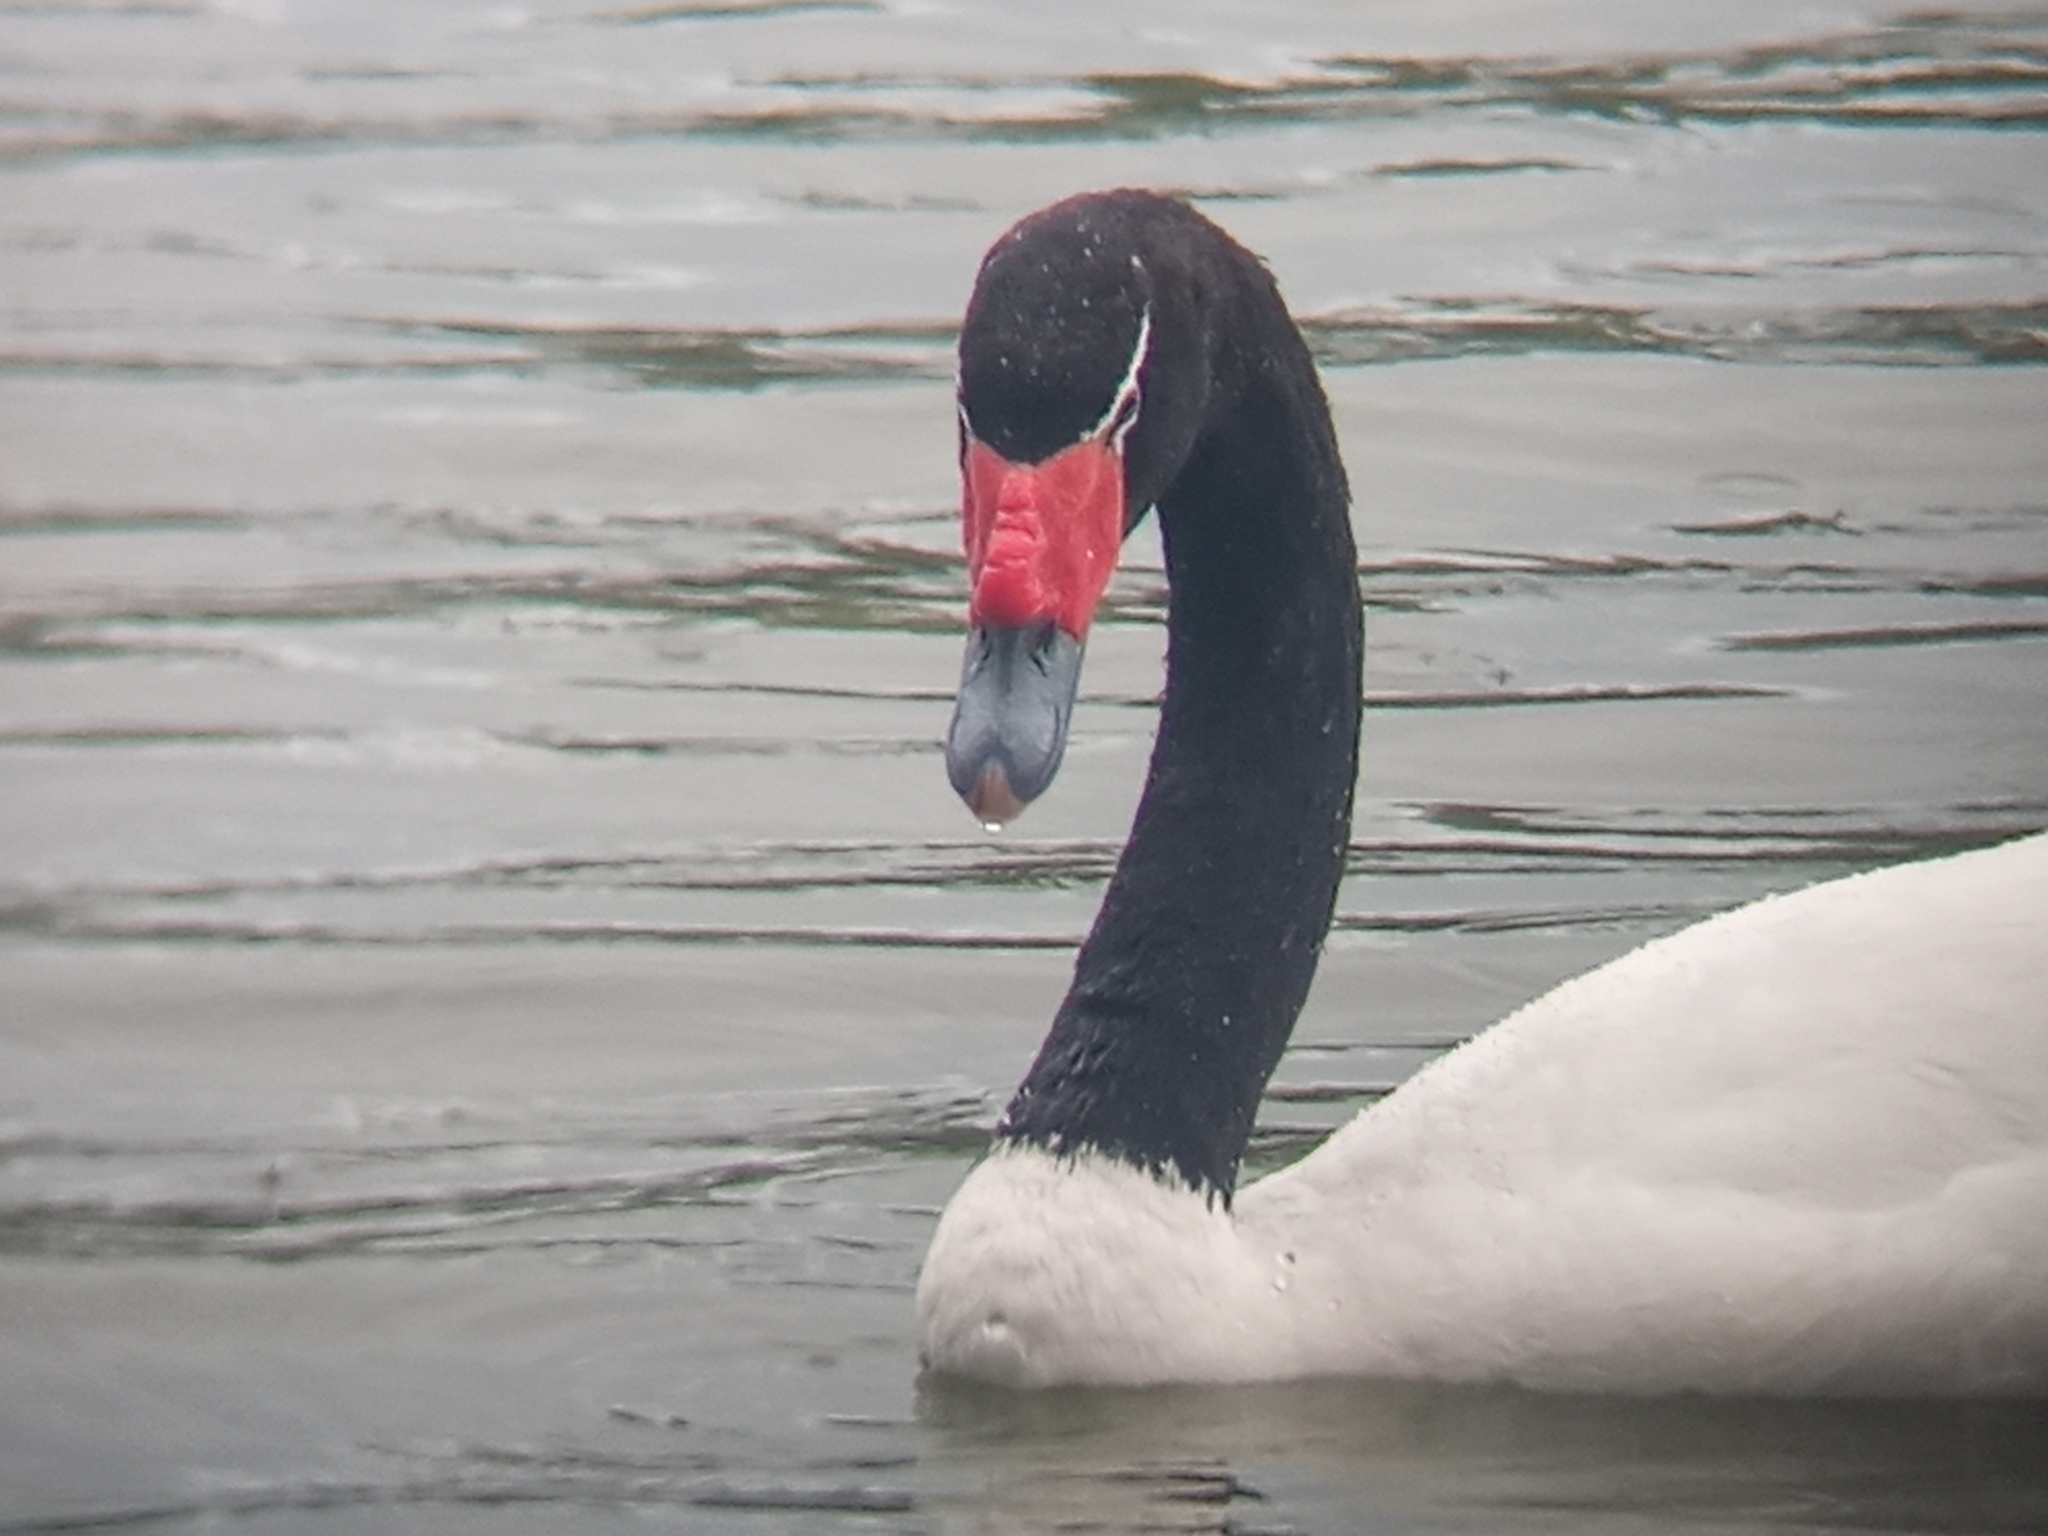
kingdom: Animalia
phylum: Chordata
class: Aves
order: Anseriformes
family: Anatidae
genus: Cygnus
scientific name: Cygnus melancoryphus
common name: Black-necked swan
